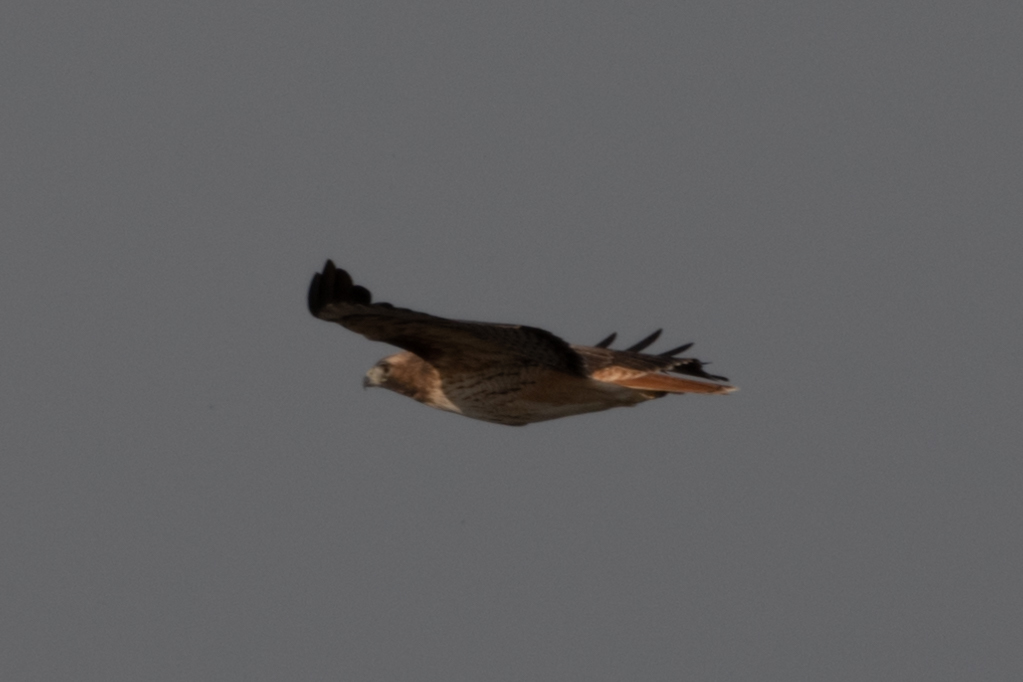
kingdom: Animalia
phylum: Chordata
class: Aves
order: Accipitriformes
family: Accipitridae
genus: Buteo
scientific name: Buteo jamaicensis
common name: Red-tailed hawk
